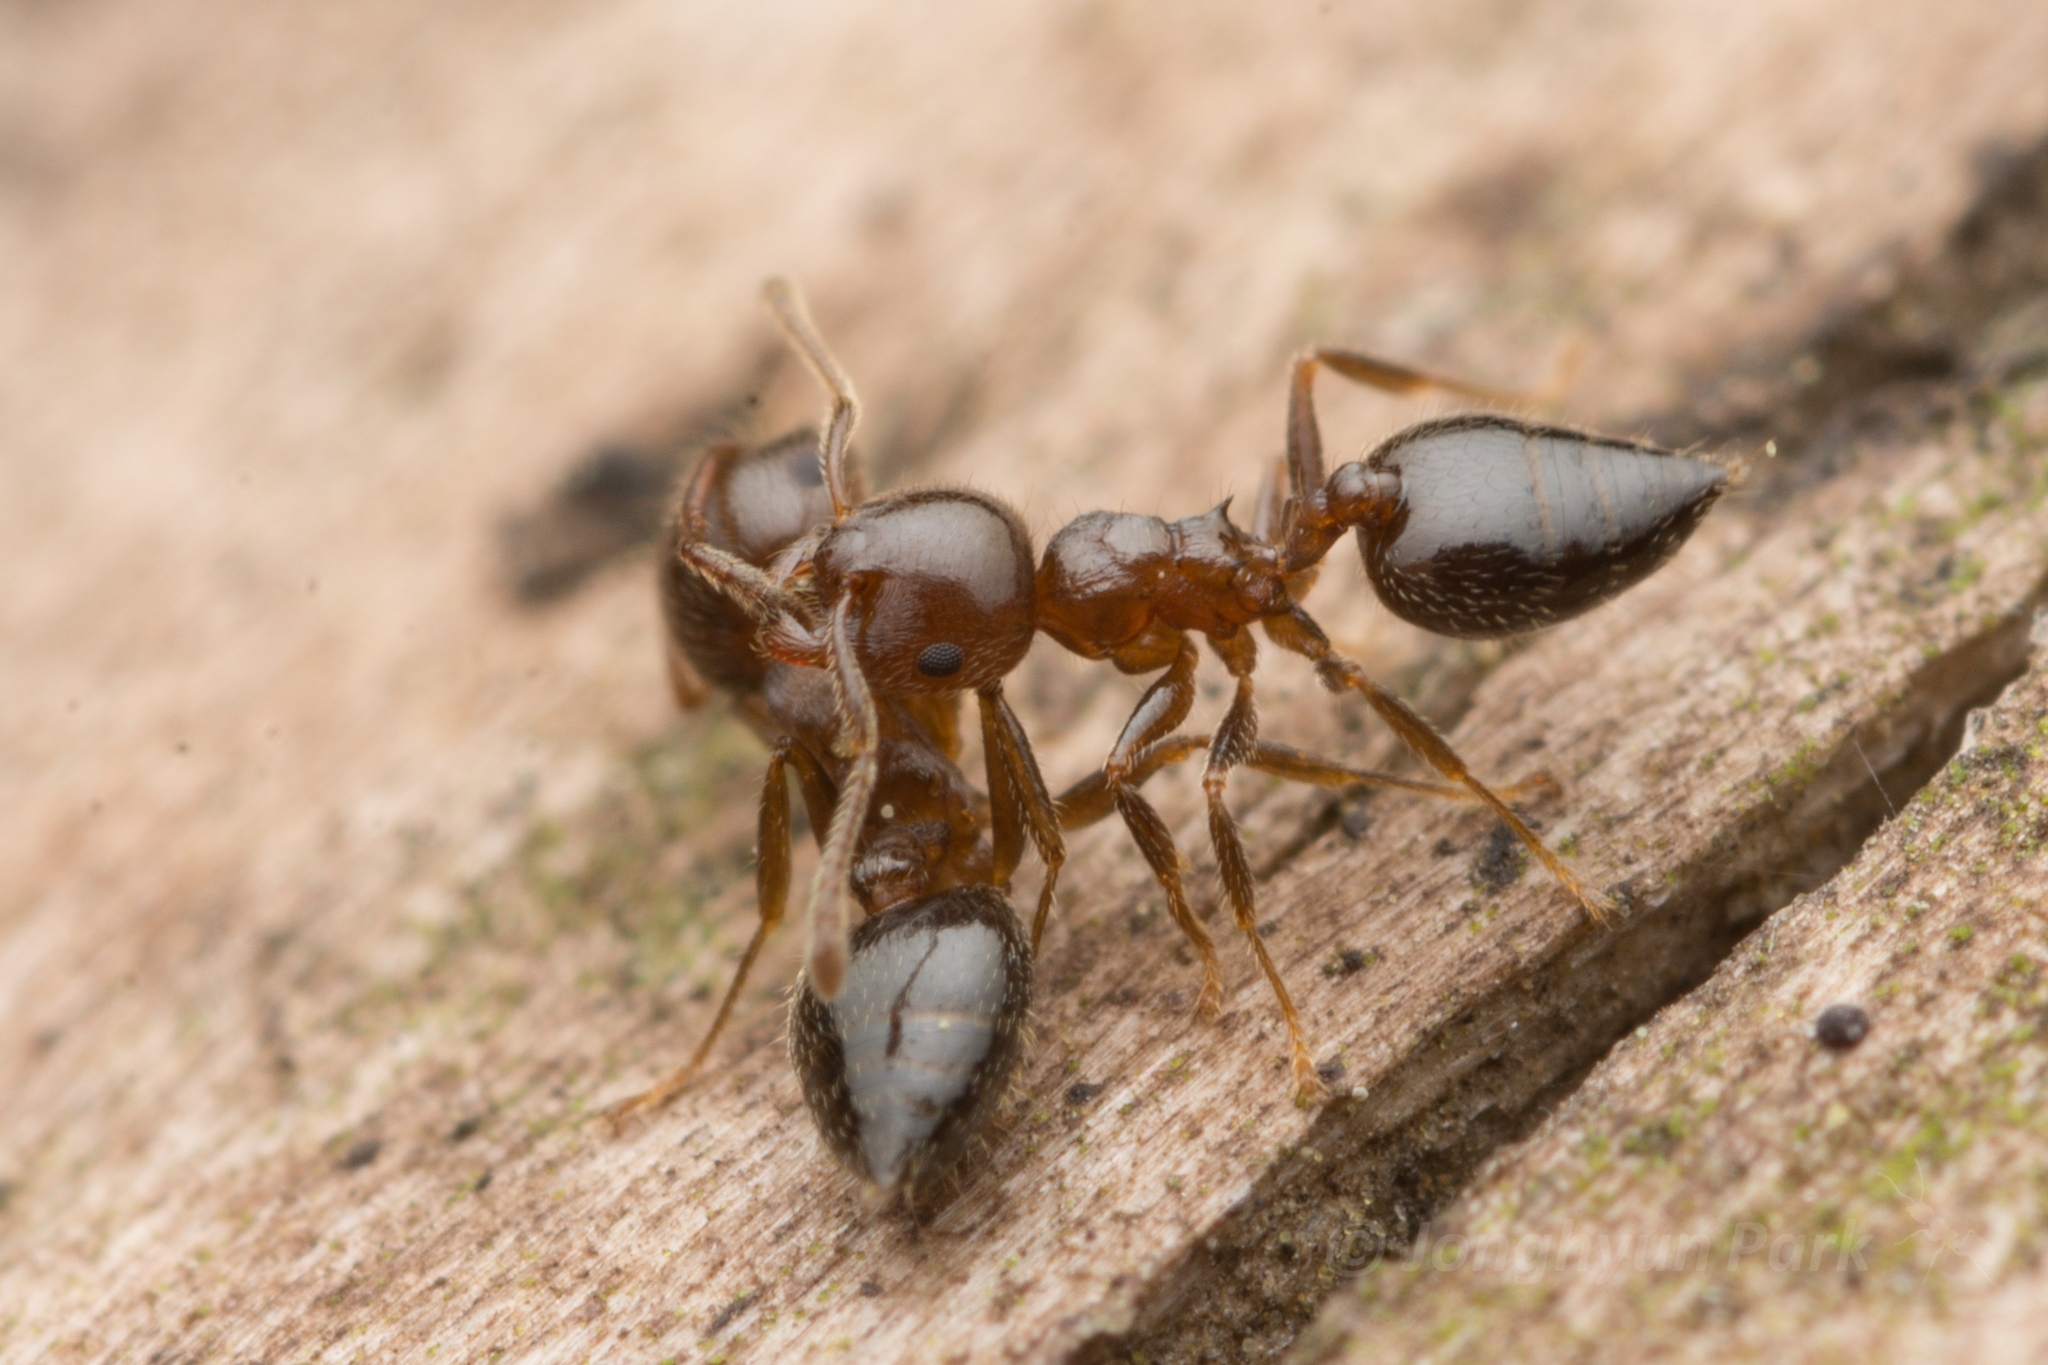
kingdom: Animalia
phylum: Arthropoda
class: Insecta
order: Hymenoptera
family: Formicidae
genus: Crematogaster
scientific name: Crematogaster matsumurai
